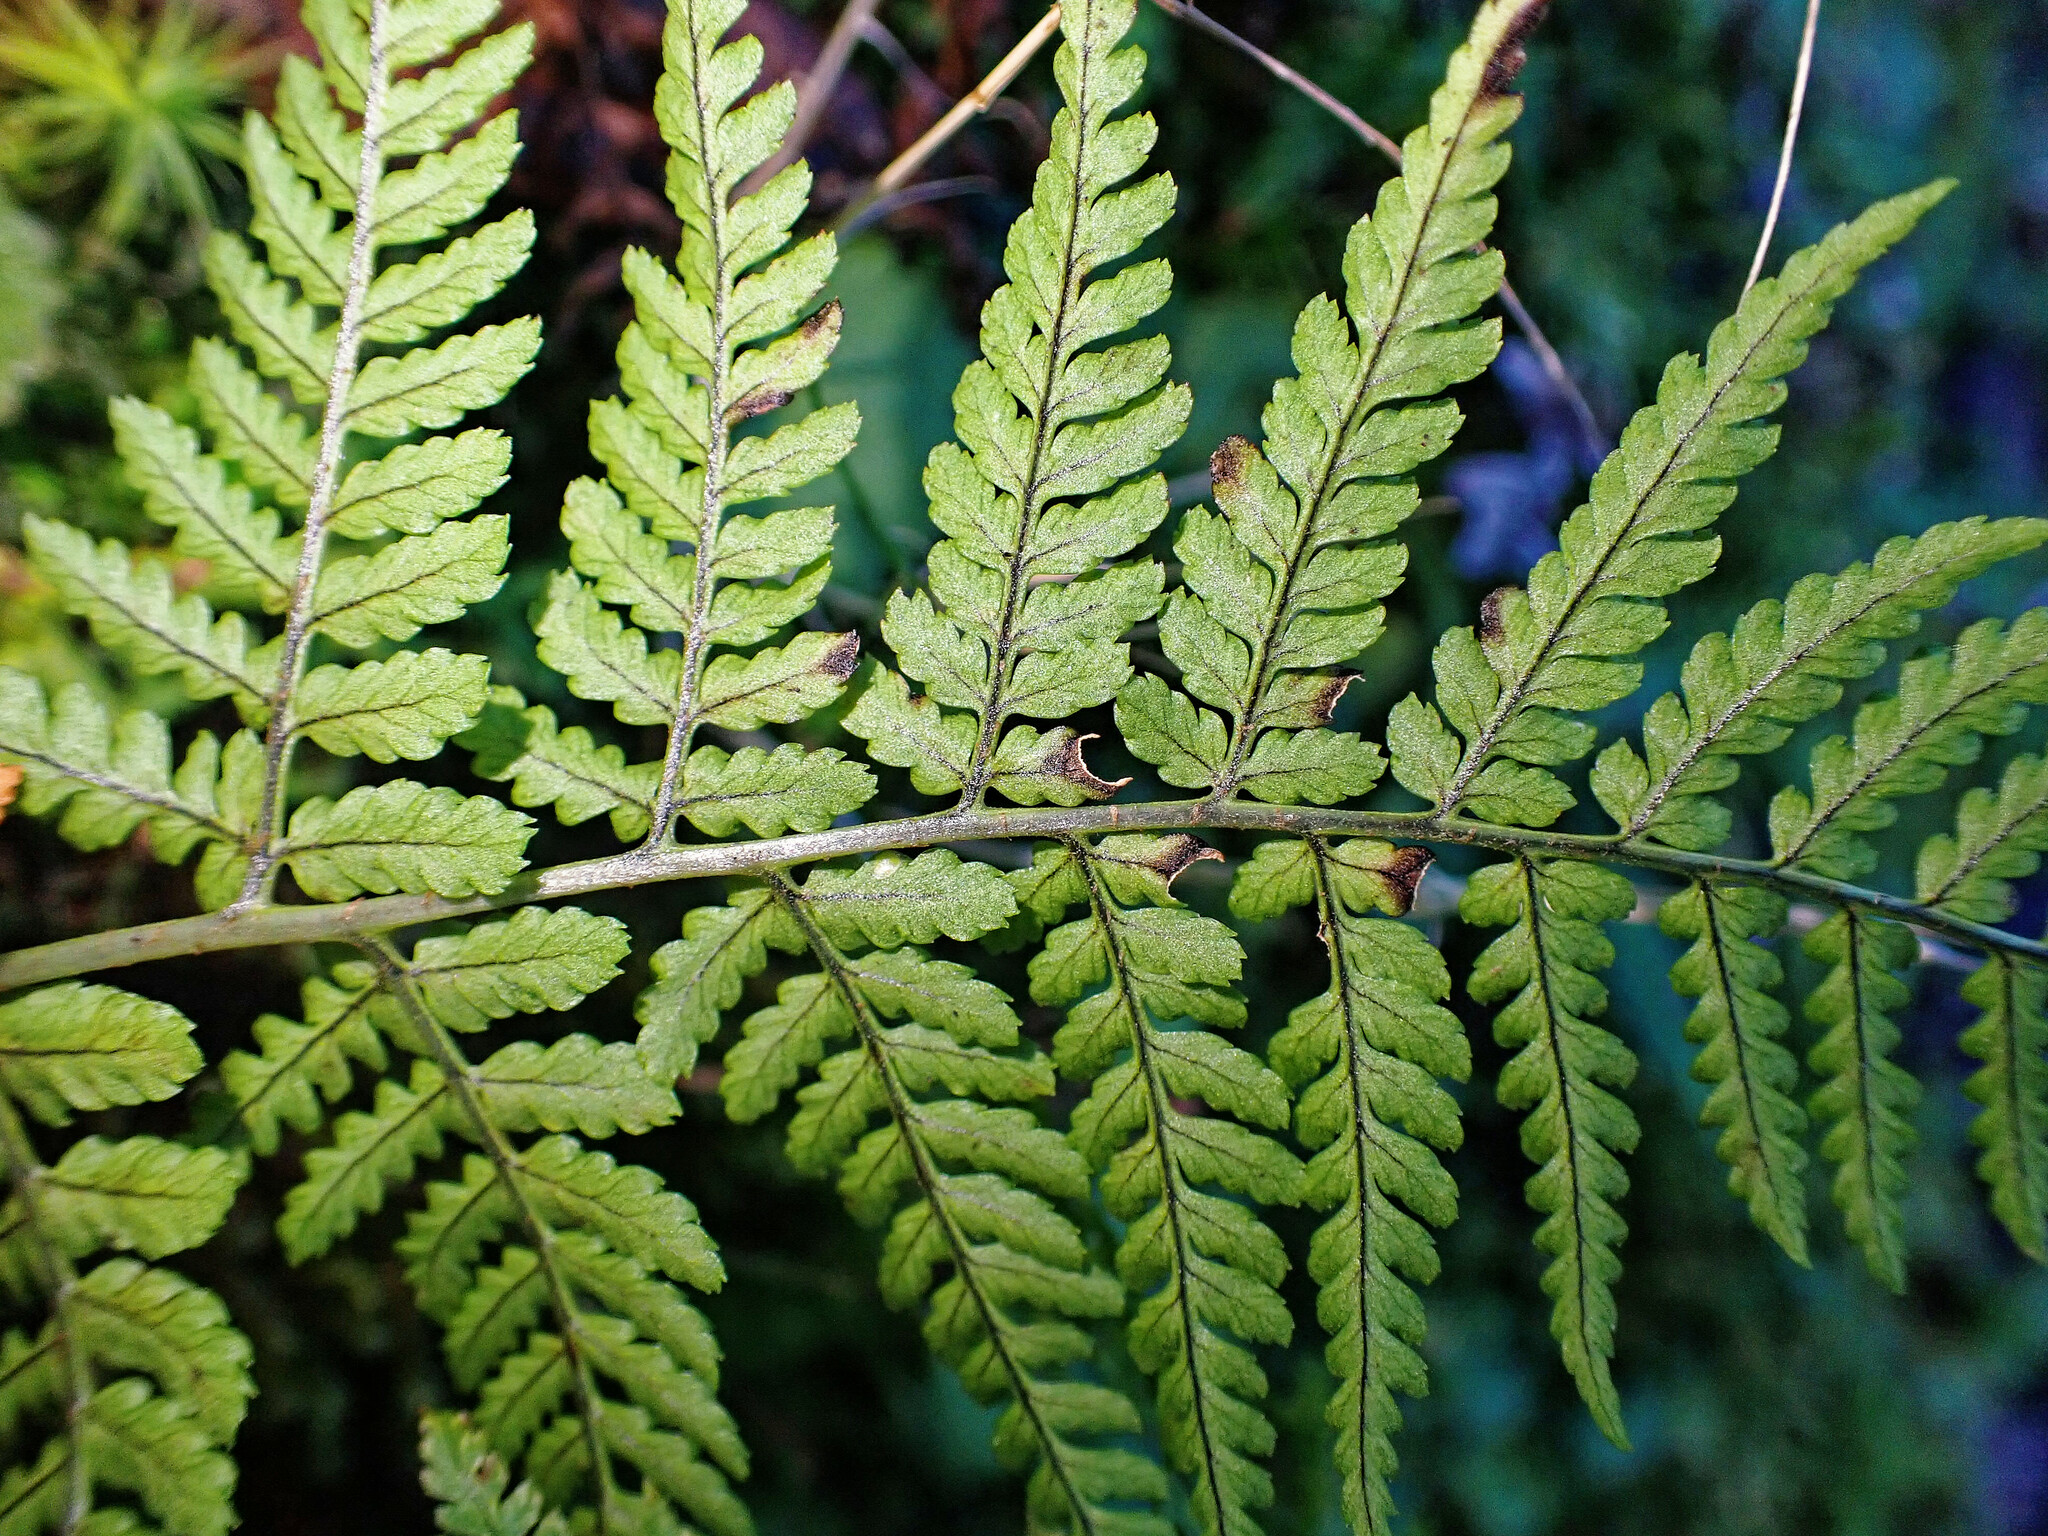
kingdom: Plantae
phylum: Tracheophyta
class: Polypodiopsida
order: Polypodiales
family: Dryopteridaceae
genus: Dryopteris
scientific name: Dryopteris aemula
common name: Hay-scented buckler-fern
